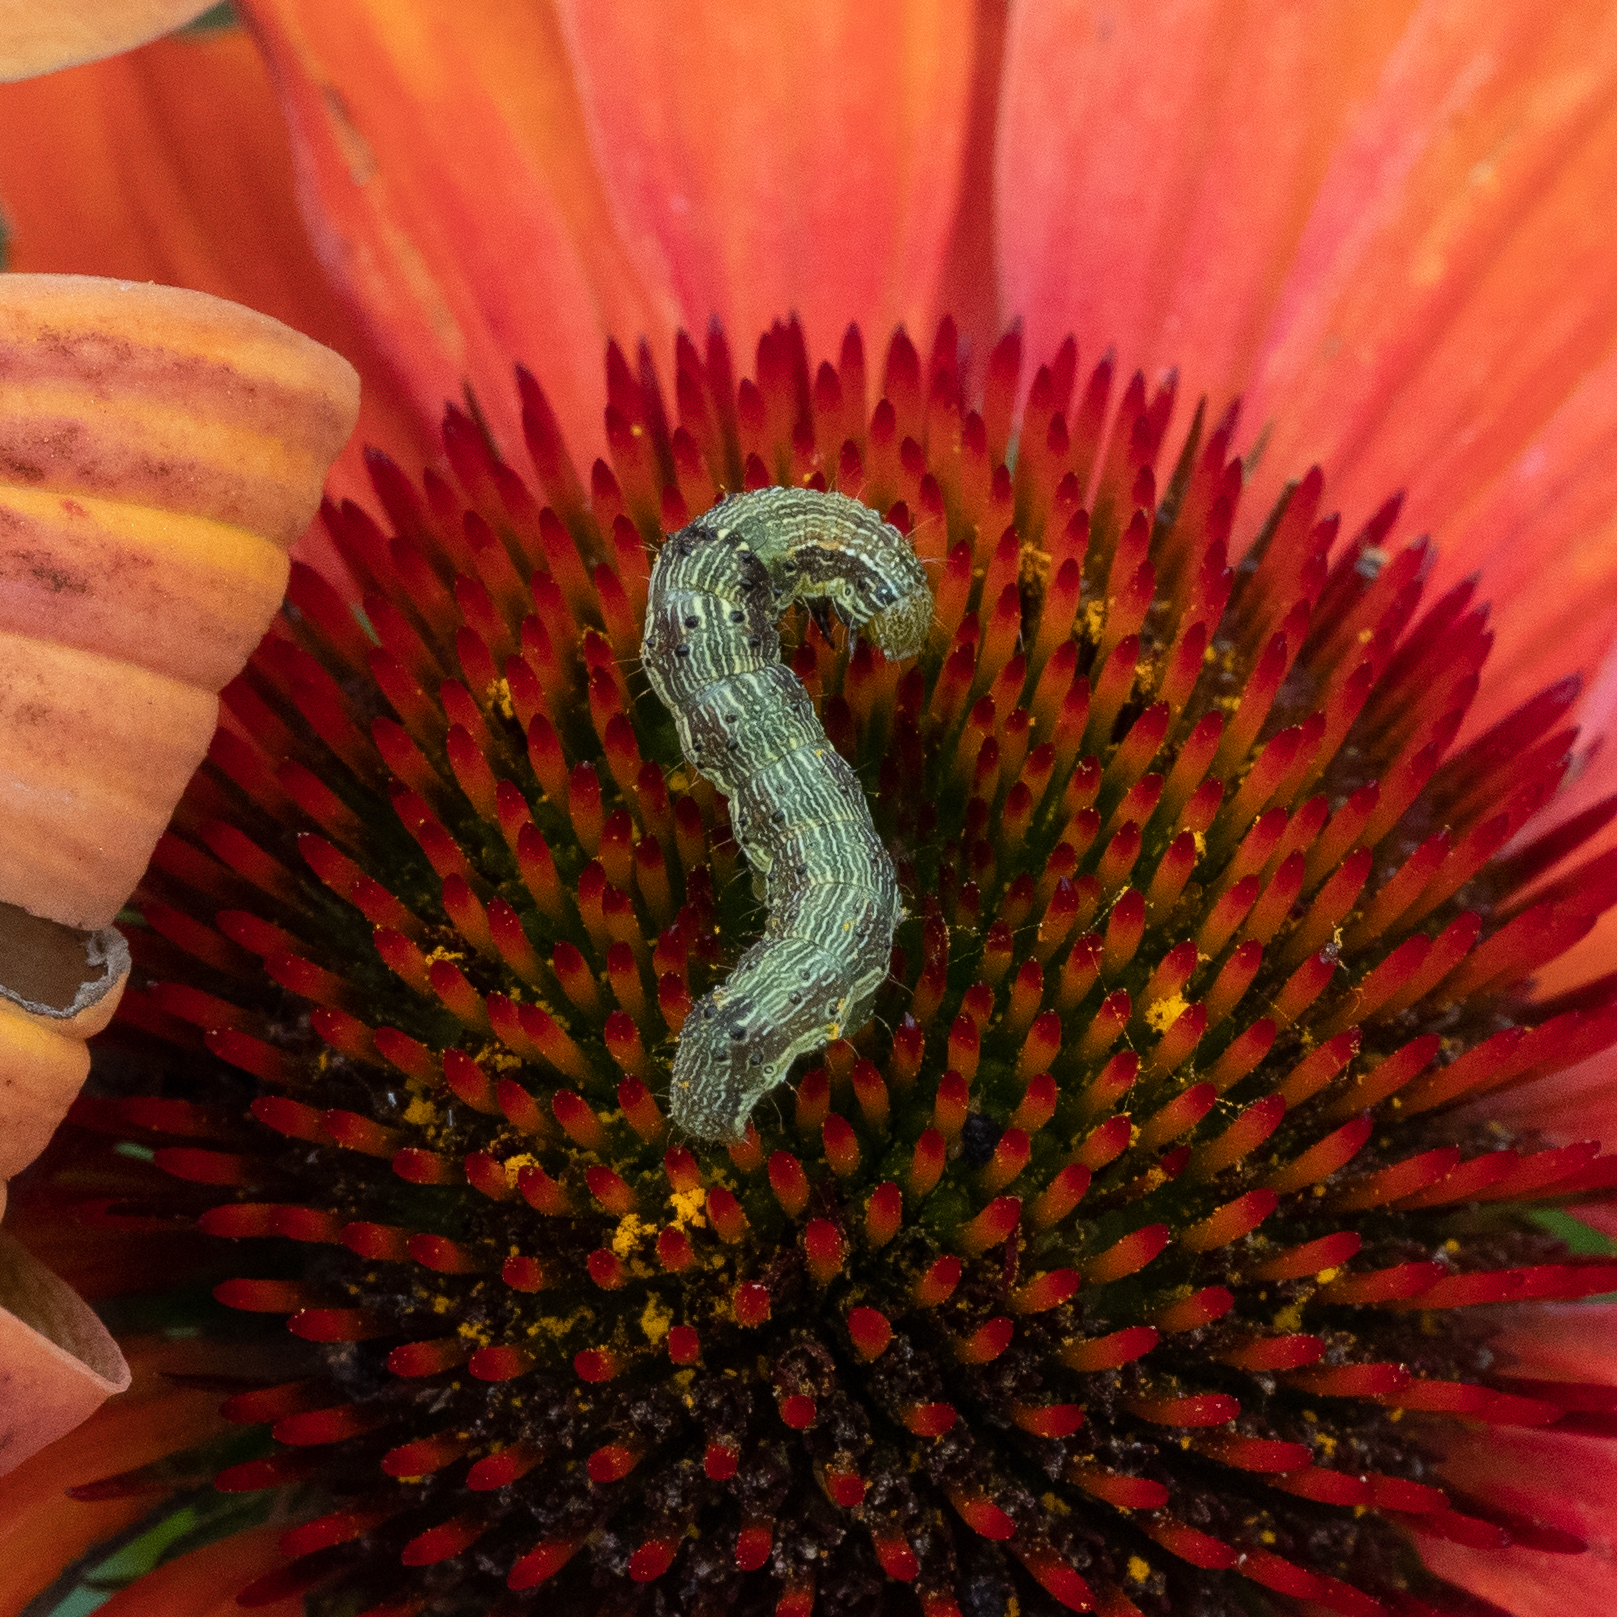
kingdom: Animalia
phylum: Arthropoda
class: Insecta
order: Lepidoptera
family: Noctuidae
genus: Helicoverpa
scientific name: Helicoverpa armigera
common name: Cotton bollworm
